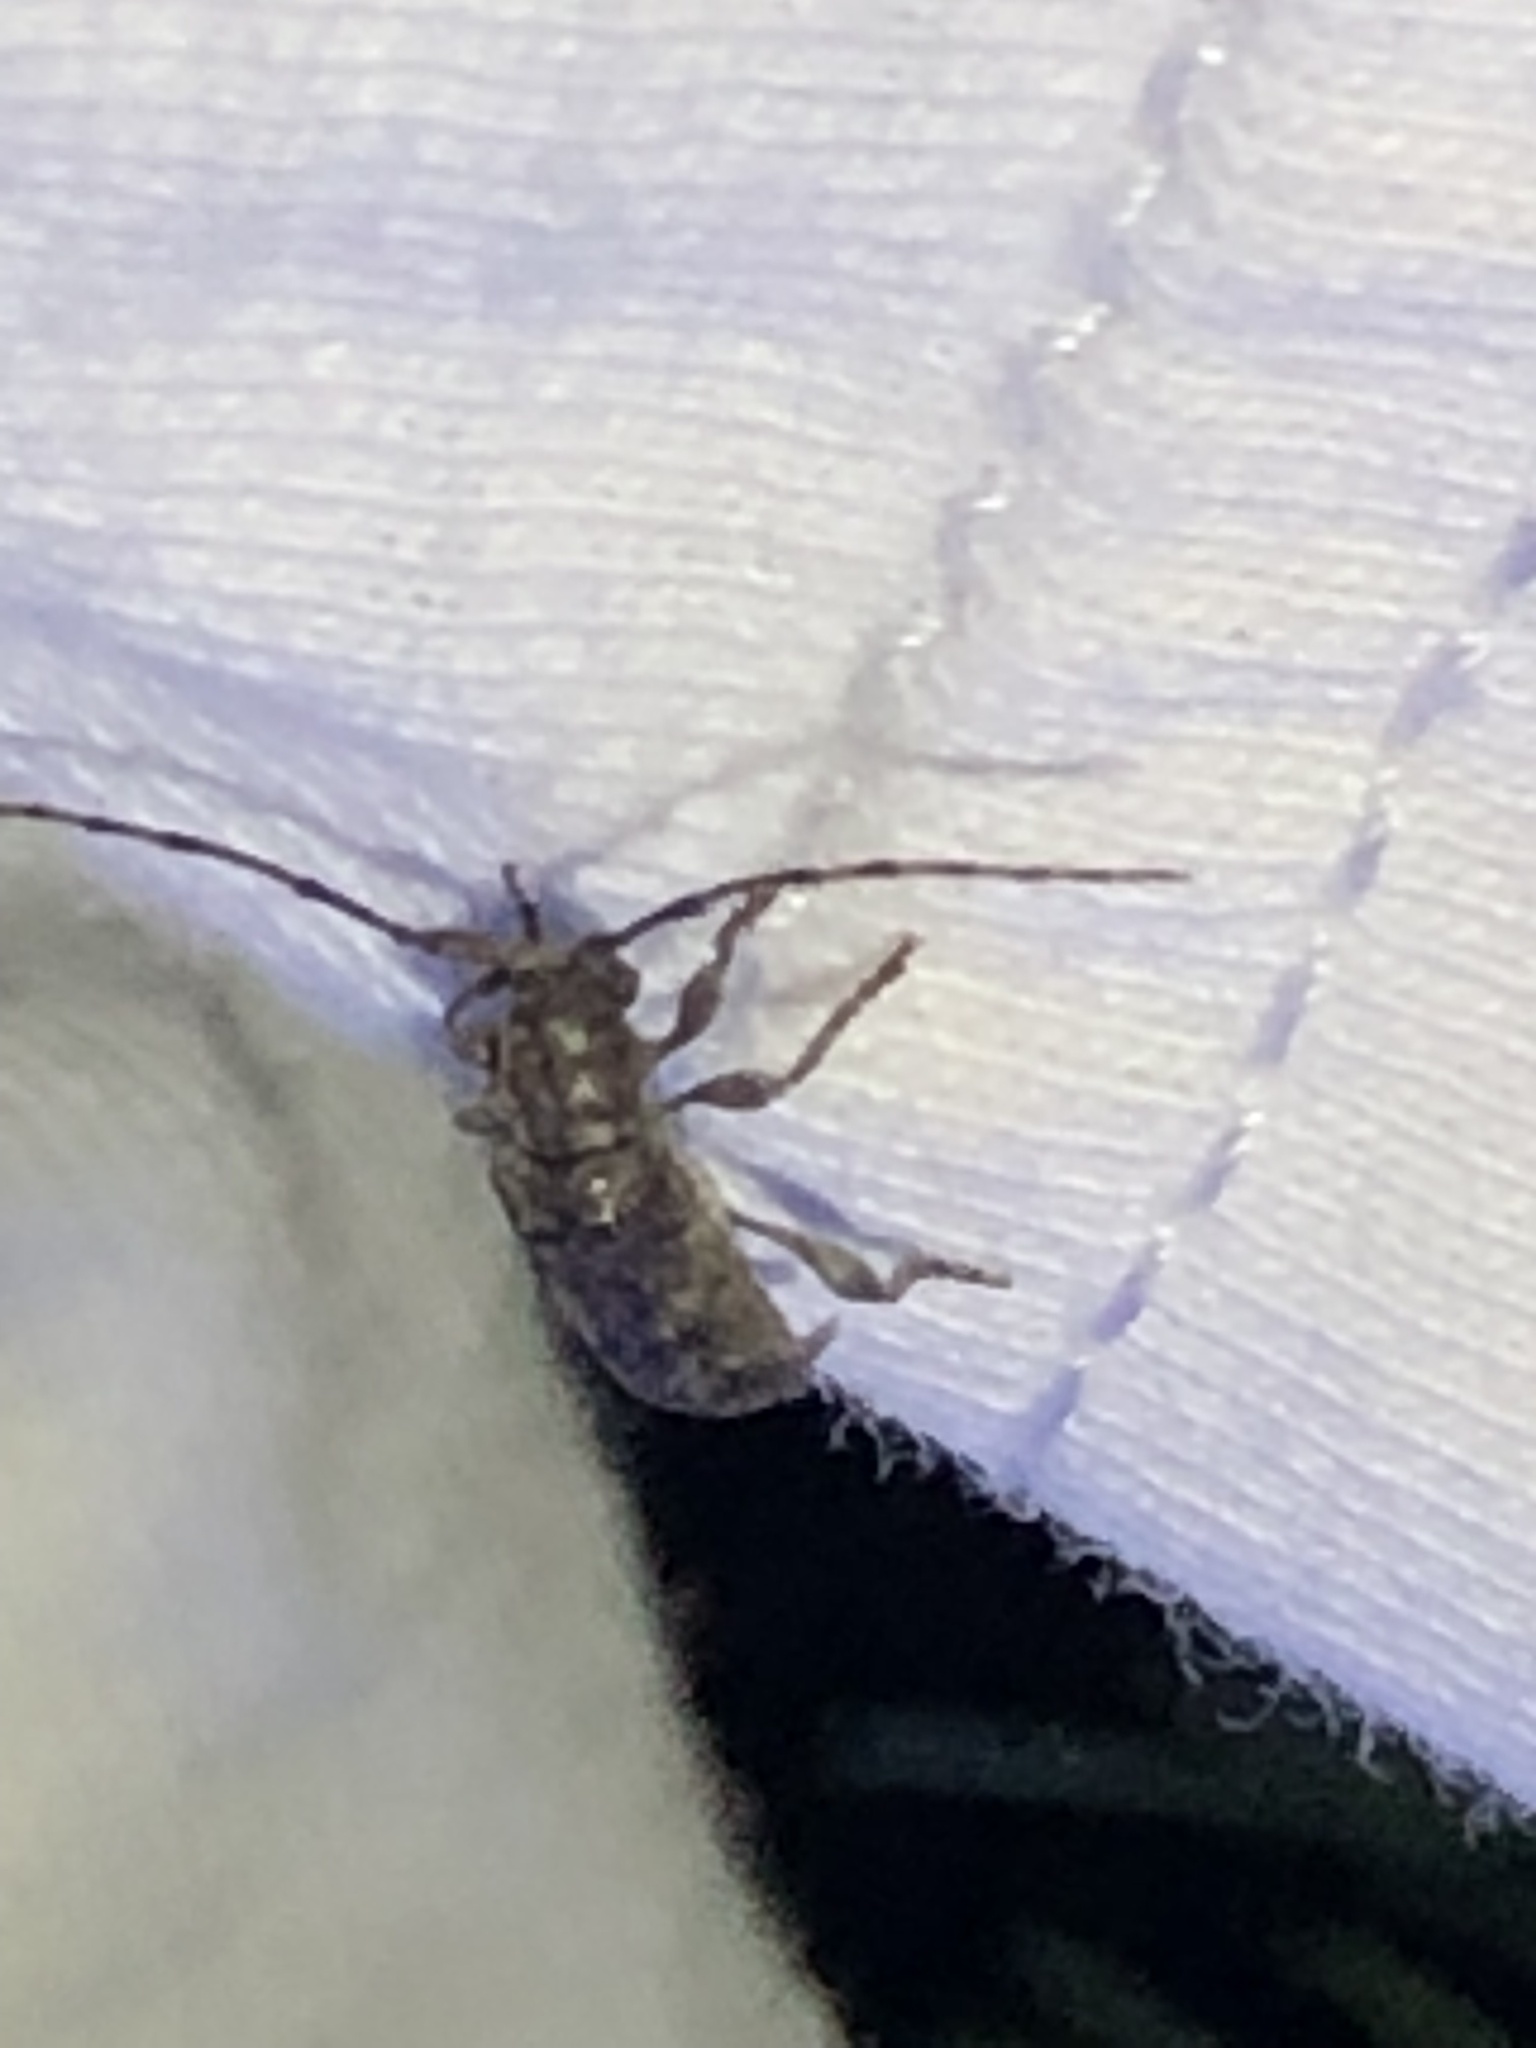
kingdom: Animalia
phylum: Arthropoda
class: Insecta
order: Coleoptera
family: Cerambycidae
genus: Ecyrus
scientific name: Ecyrus dasycerus
